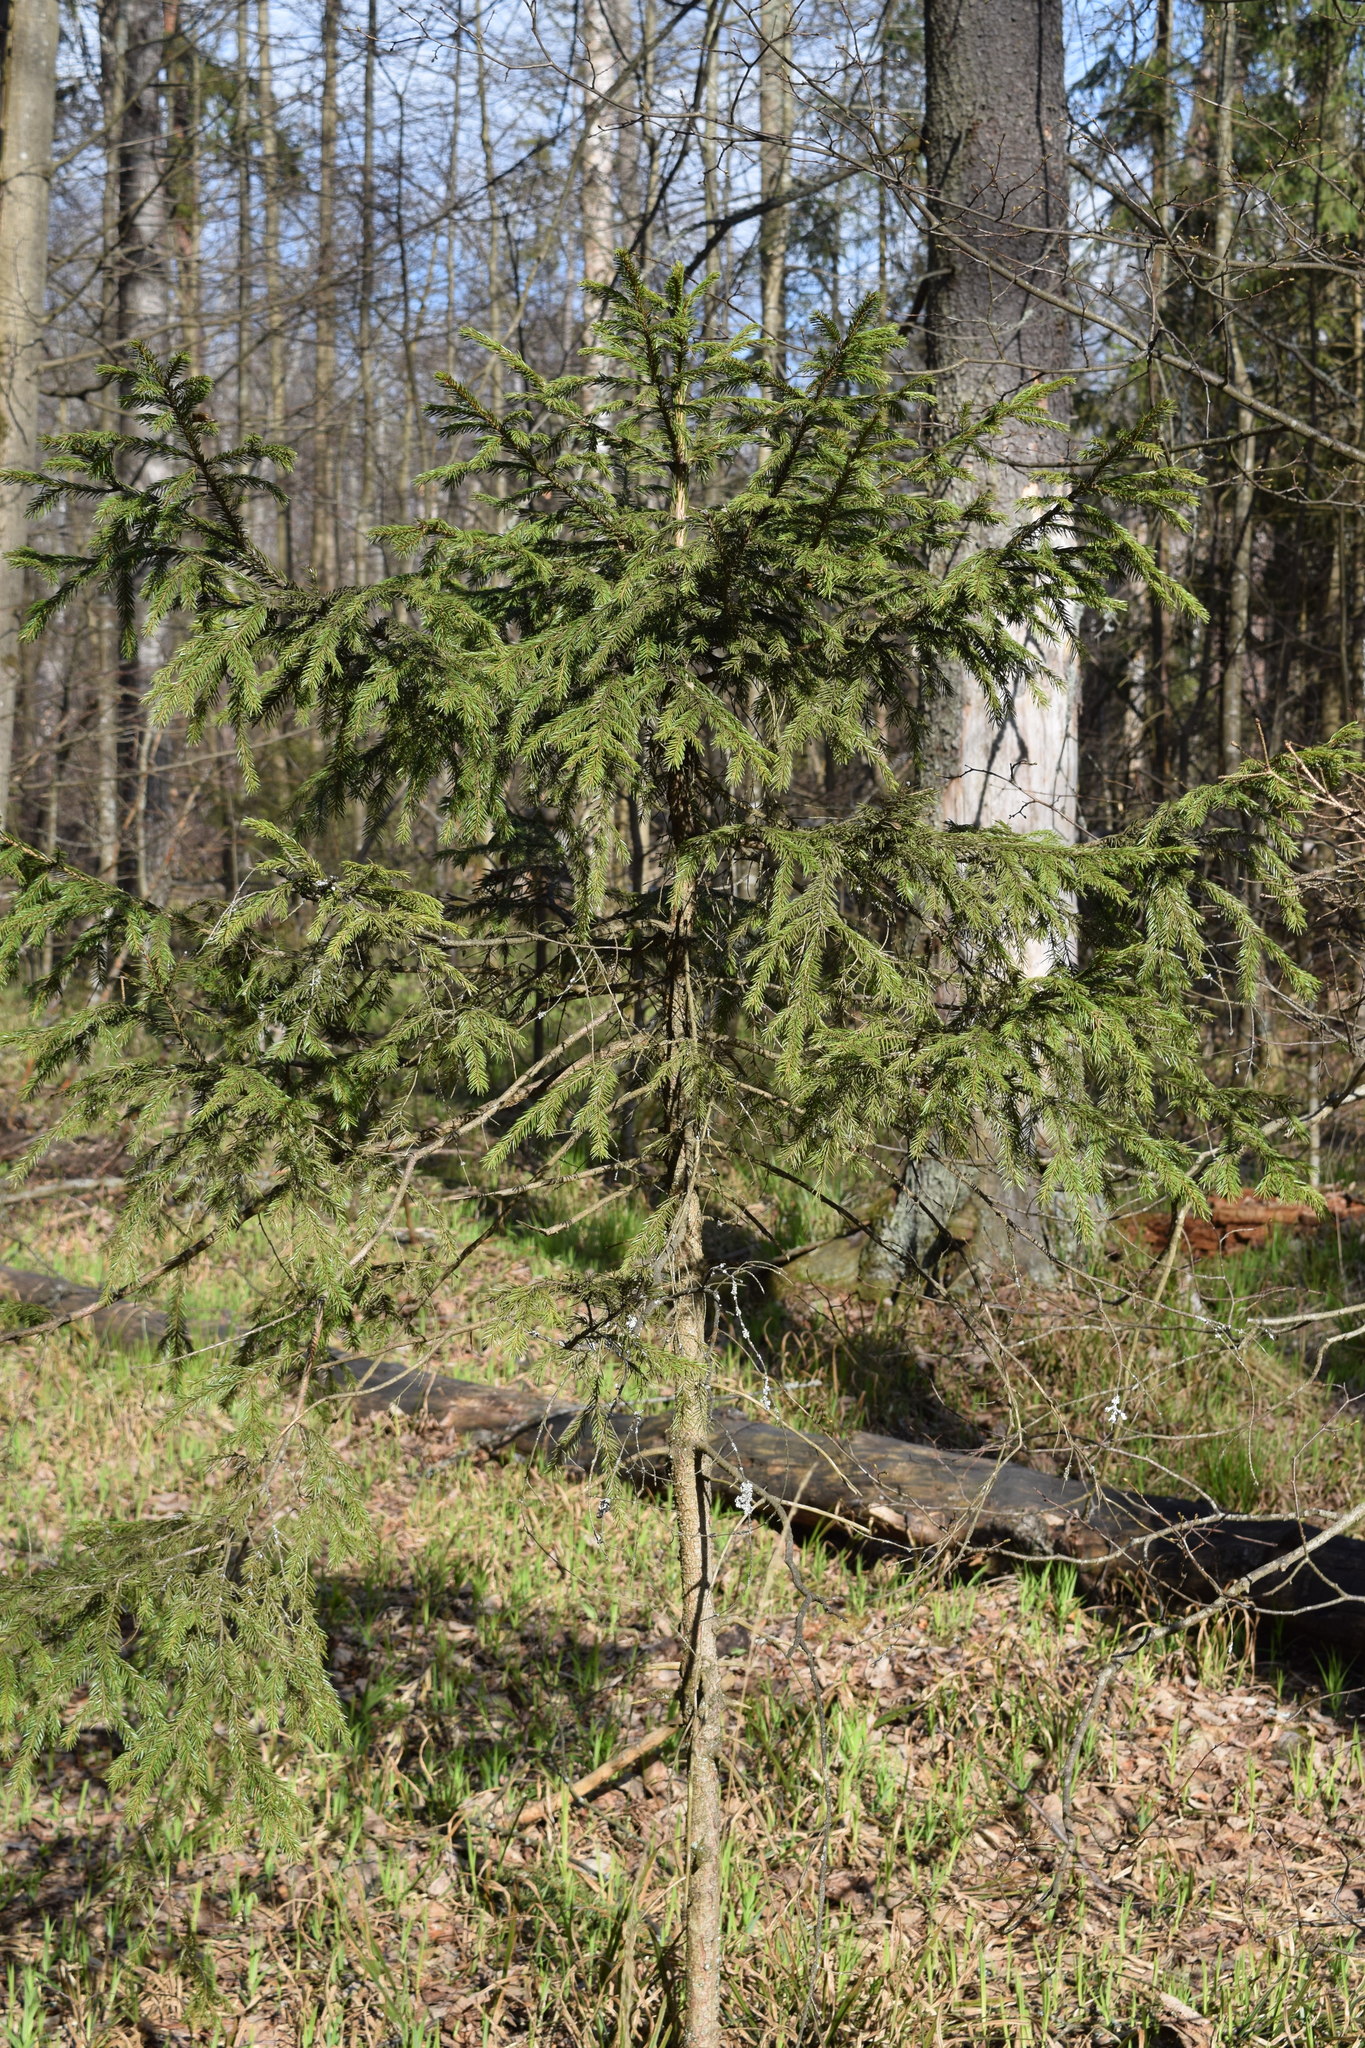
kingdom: Plantae
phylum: Tracheophyta
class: Pinopsida
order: Pinales
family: Pinaceae
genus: Picea
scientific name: Picea abies
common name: Norway spruce
